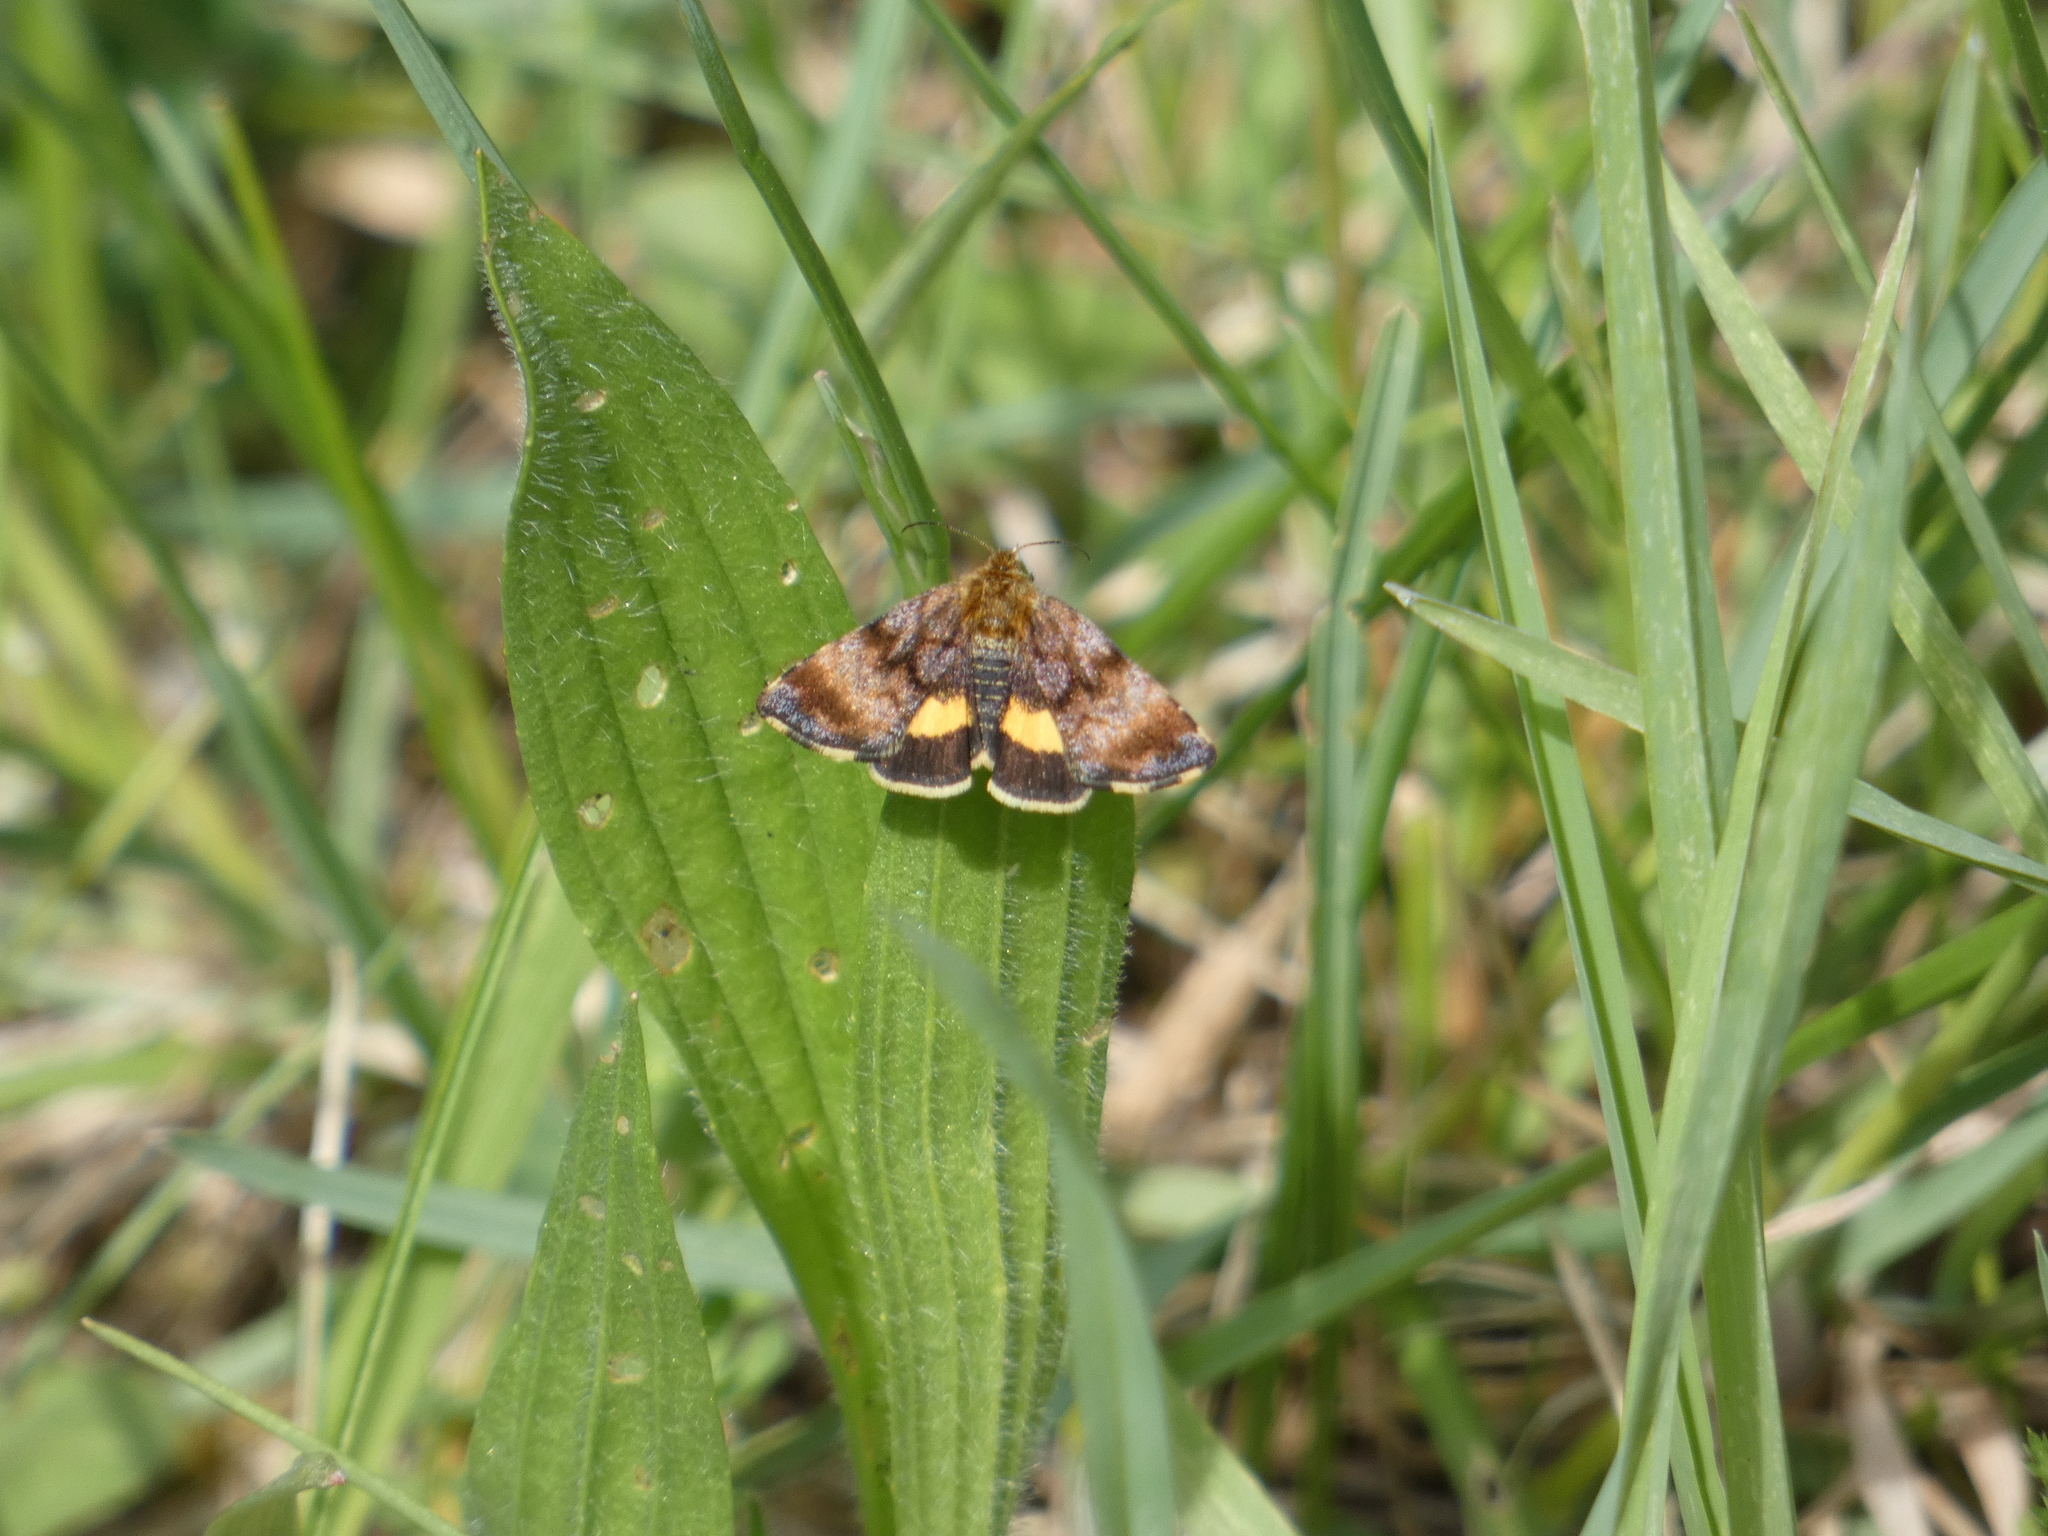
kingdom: Animalia
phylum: Arthropoda
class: Insecta
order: Lepidoptera
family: Noctuidae
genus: Panemeria
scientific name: Panemeria tenebrata
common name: Small yellow underwing
